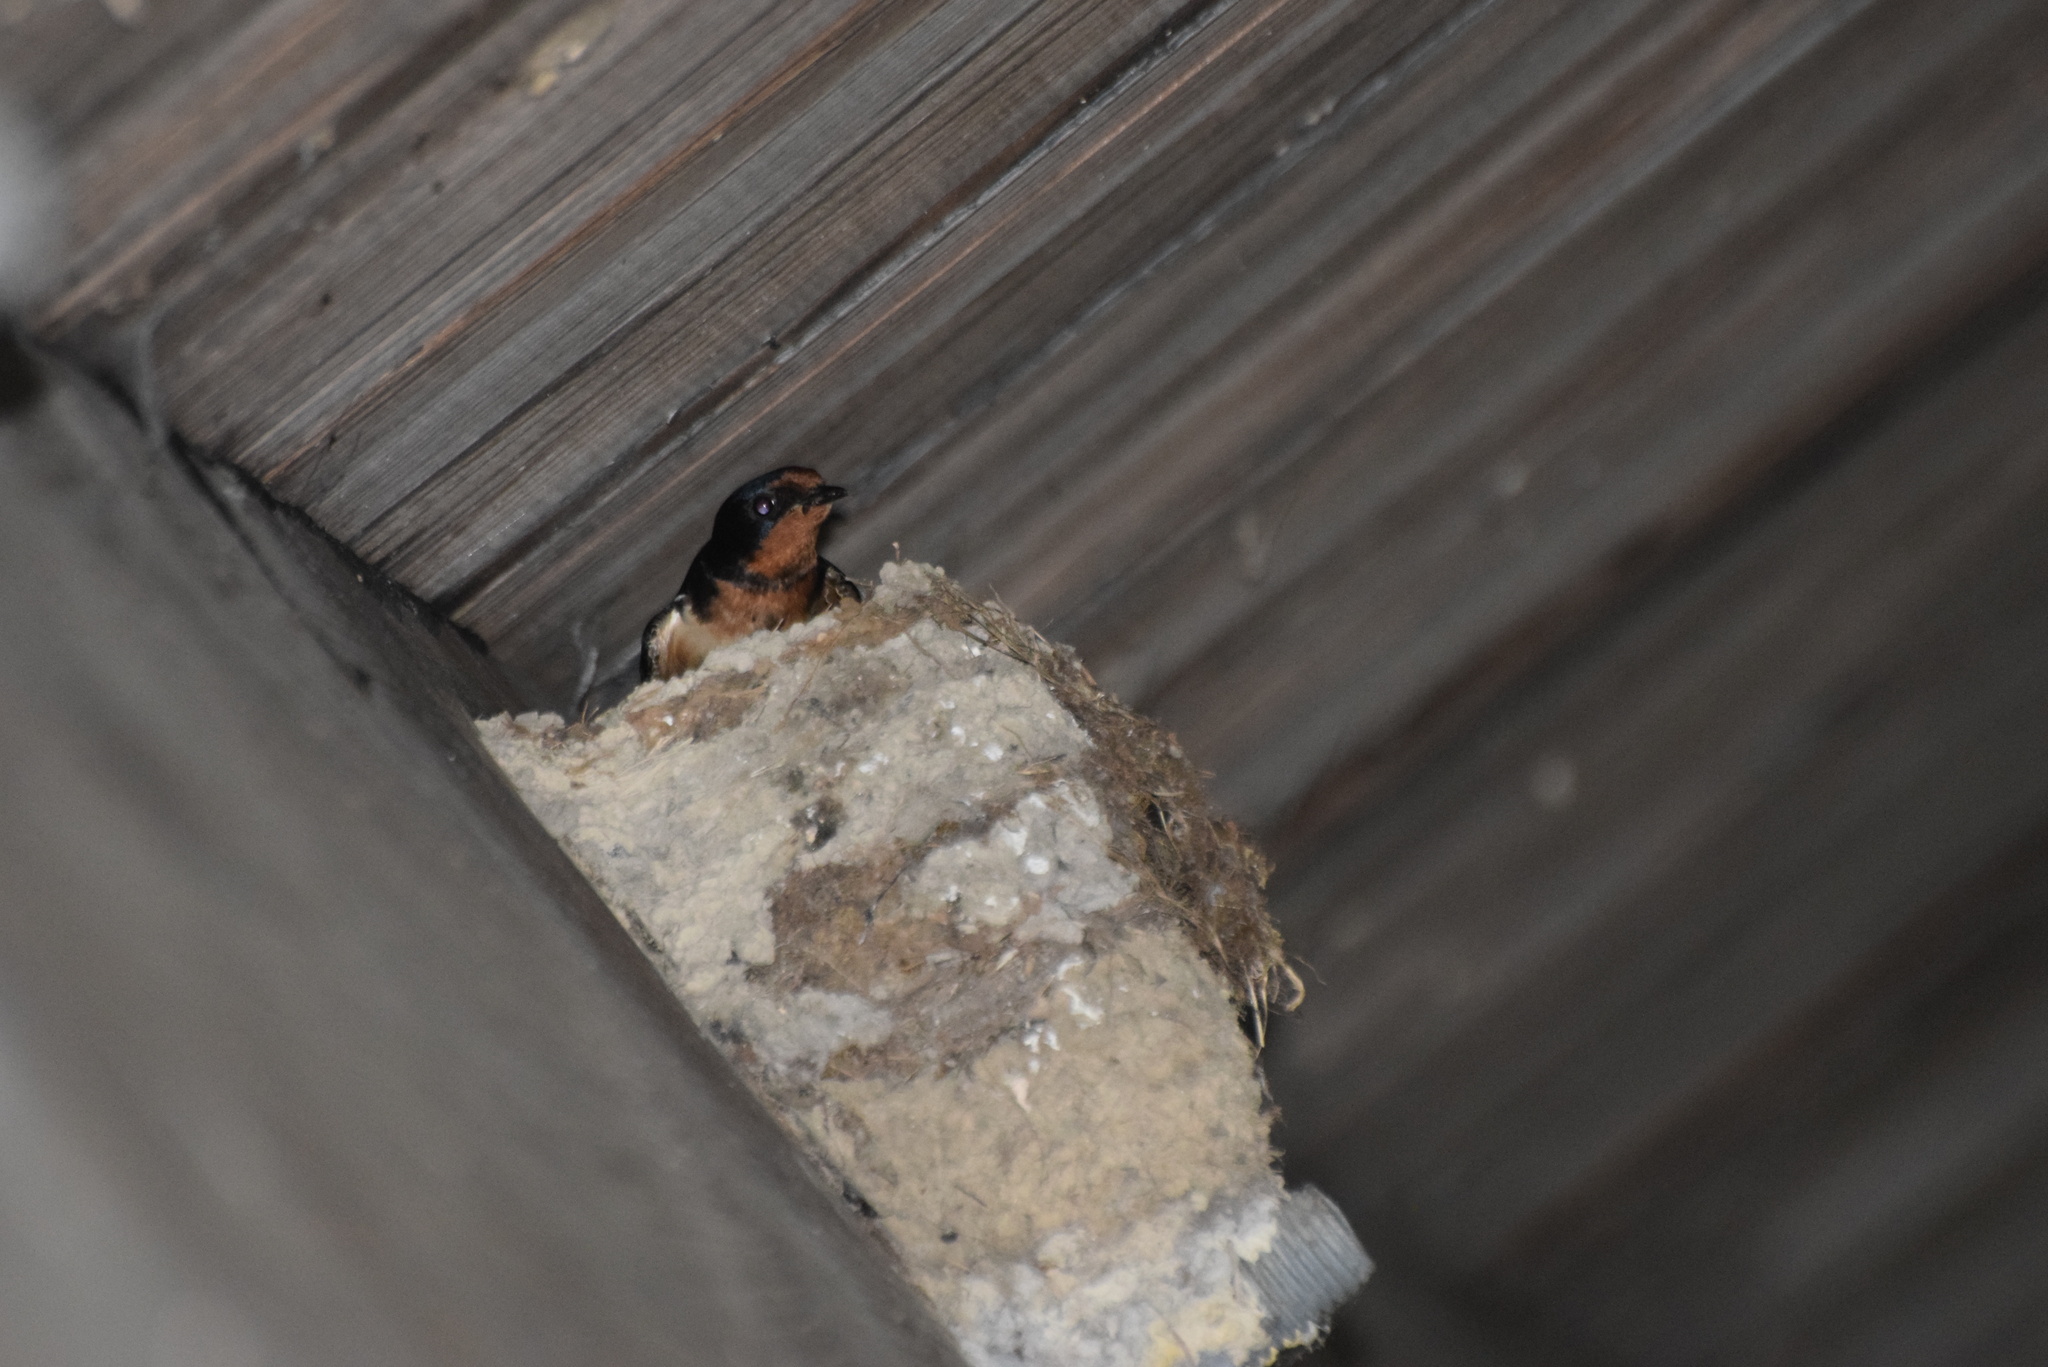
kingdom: Animalia
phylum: Chordata
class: Aves
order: Passeriformes
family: Hirundinidae
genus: Hirundo
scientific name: Hirundo rustica
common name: Barn swallow
